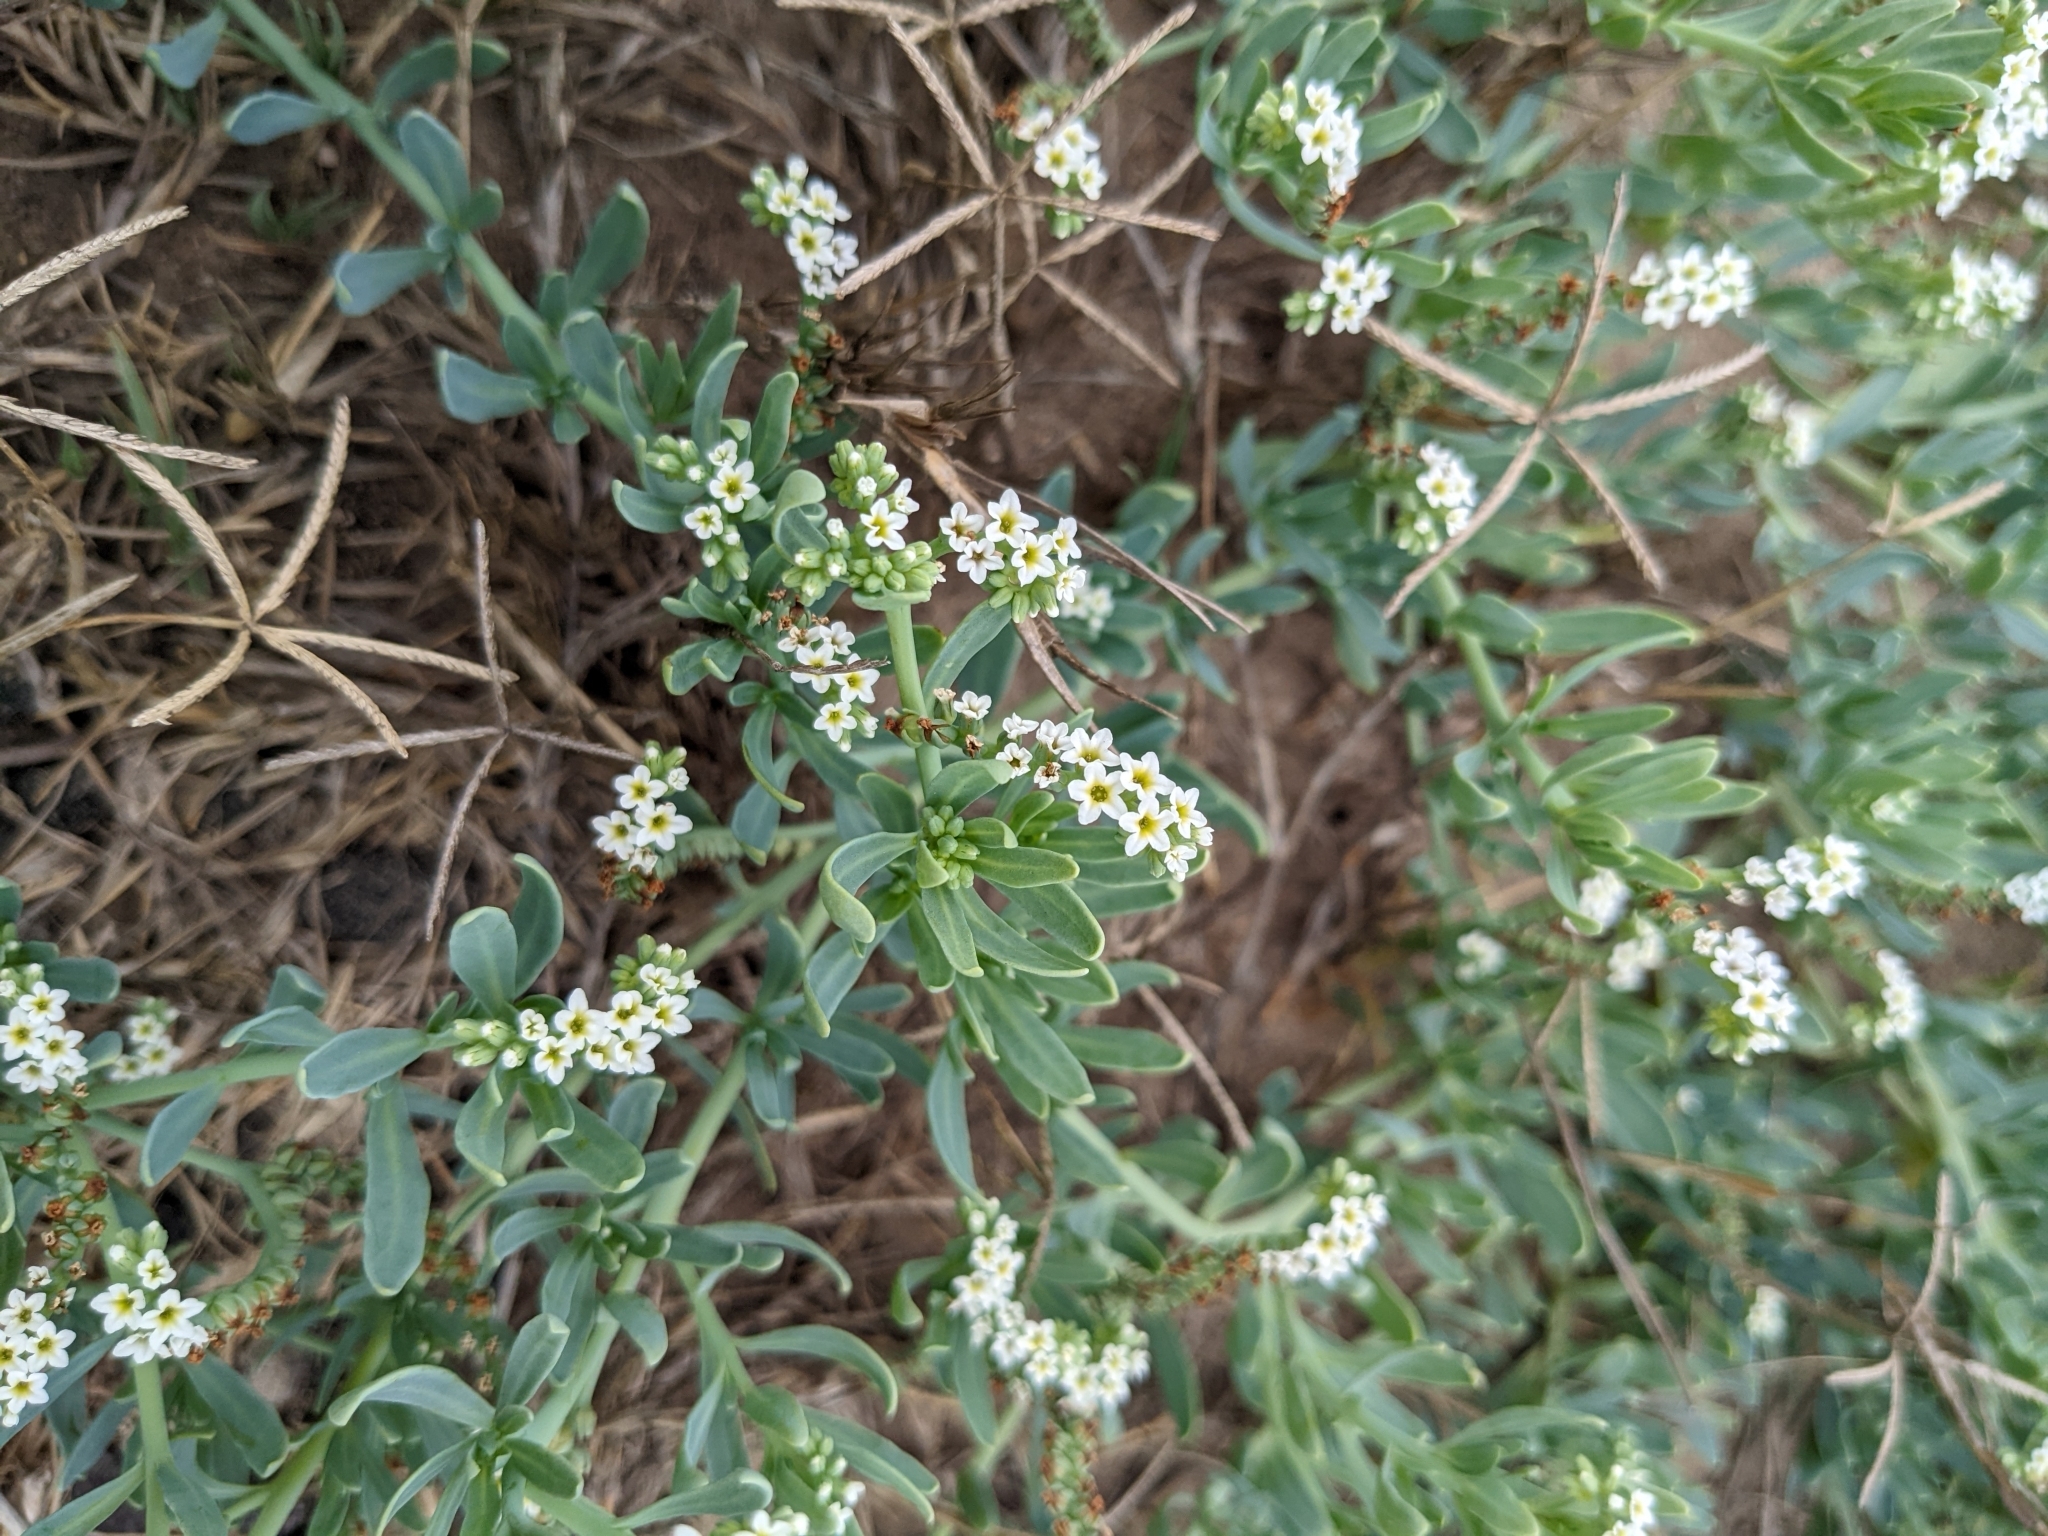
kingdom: Plantae
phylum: Tracheophyta
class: Magnoliopsida
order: Boraginales
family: Heliotropiaceae
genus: Heliotropium
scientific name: Heliotropium curassavicum
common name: Seaside heliotrope
